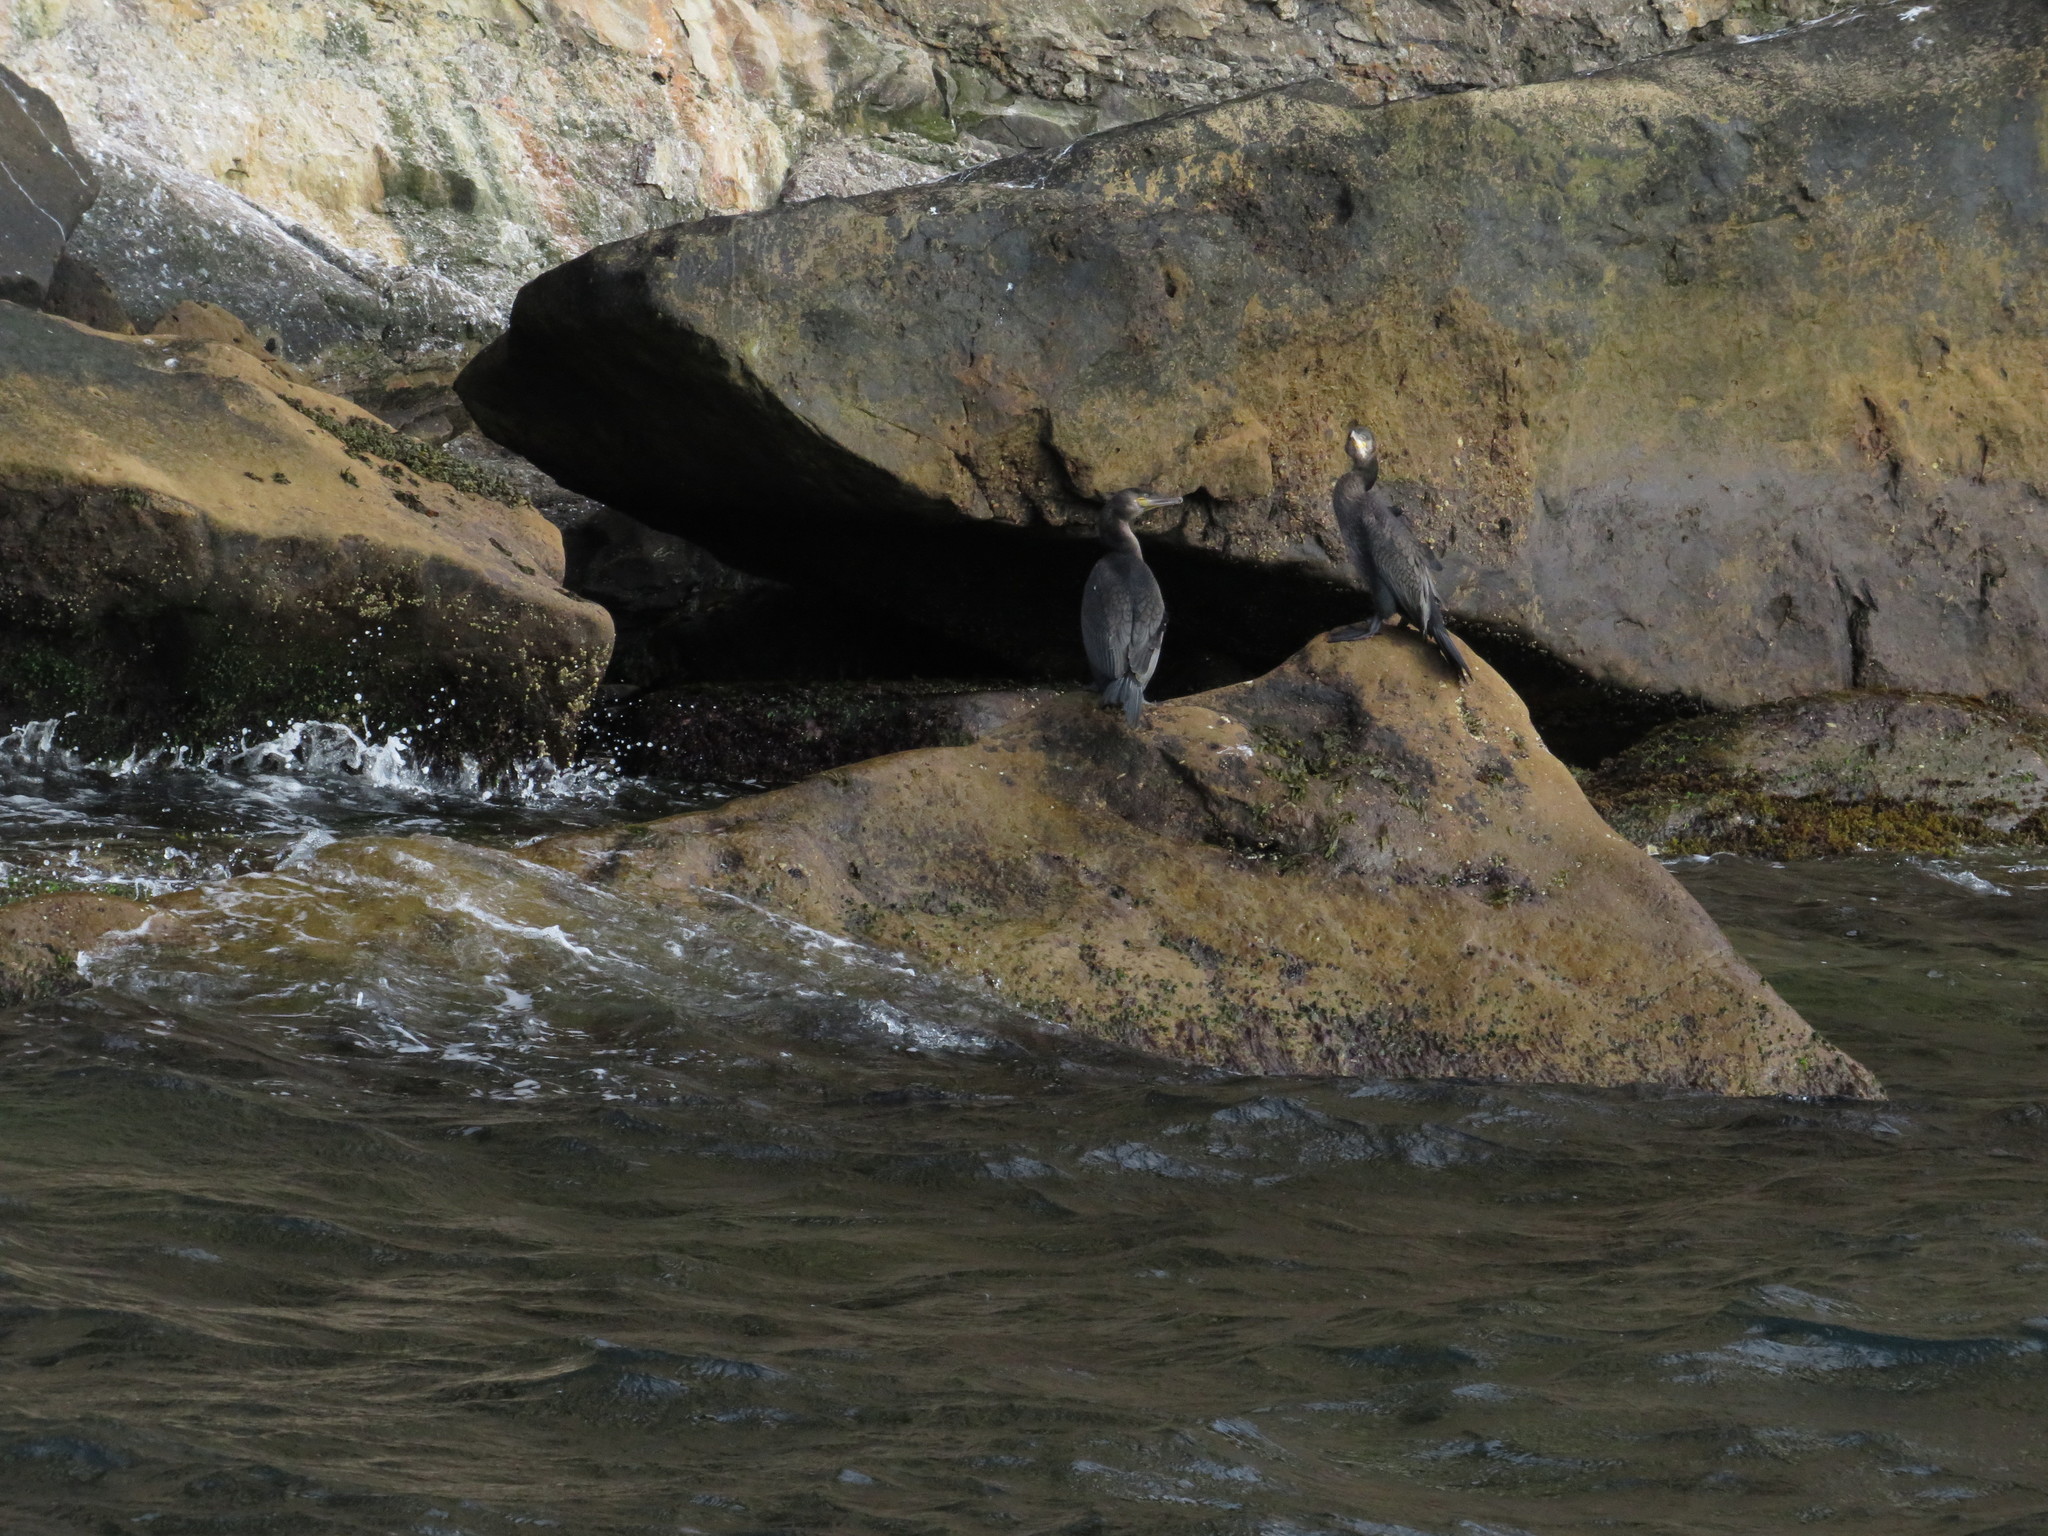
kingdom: Animalia
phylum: Chordata
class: Aves
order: Suliformes
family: Phalacrocoracidae
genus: Phalacrocorax
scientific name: Phalacrocorax auritus
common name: Double-crested cormorant
